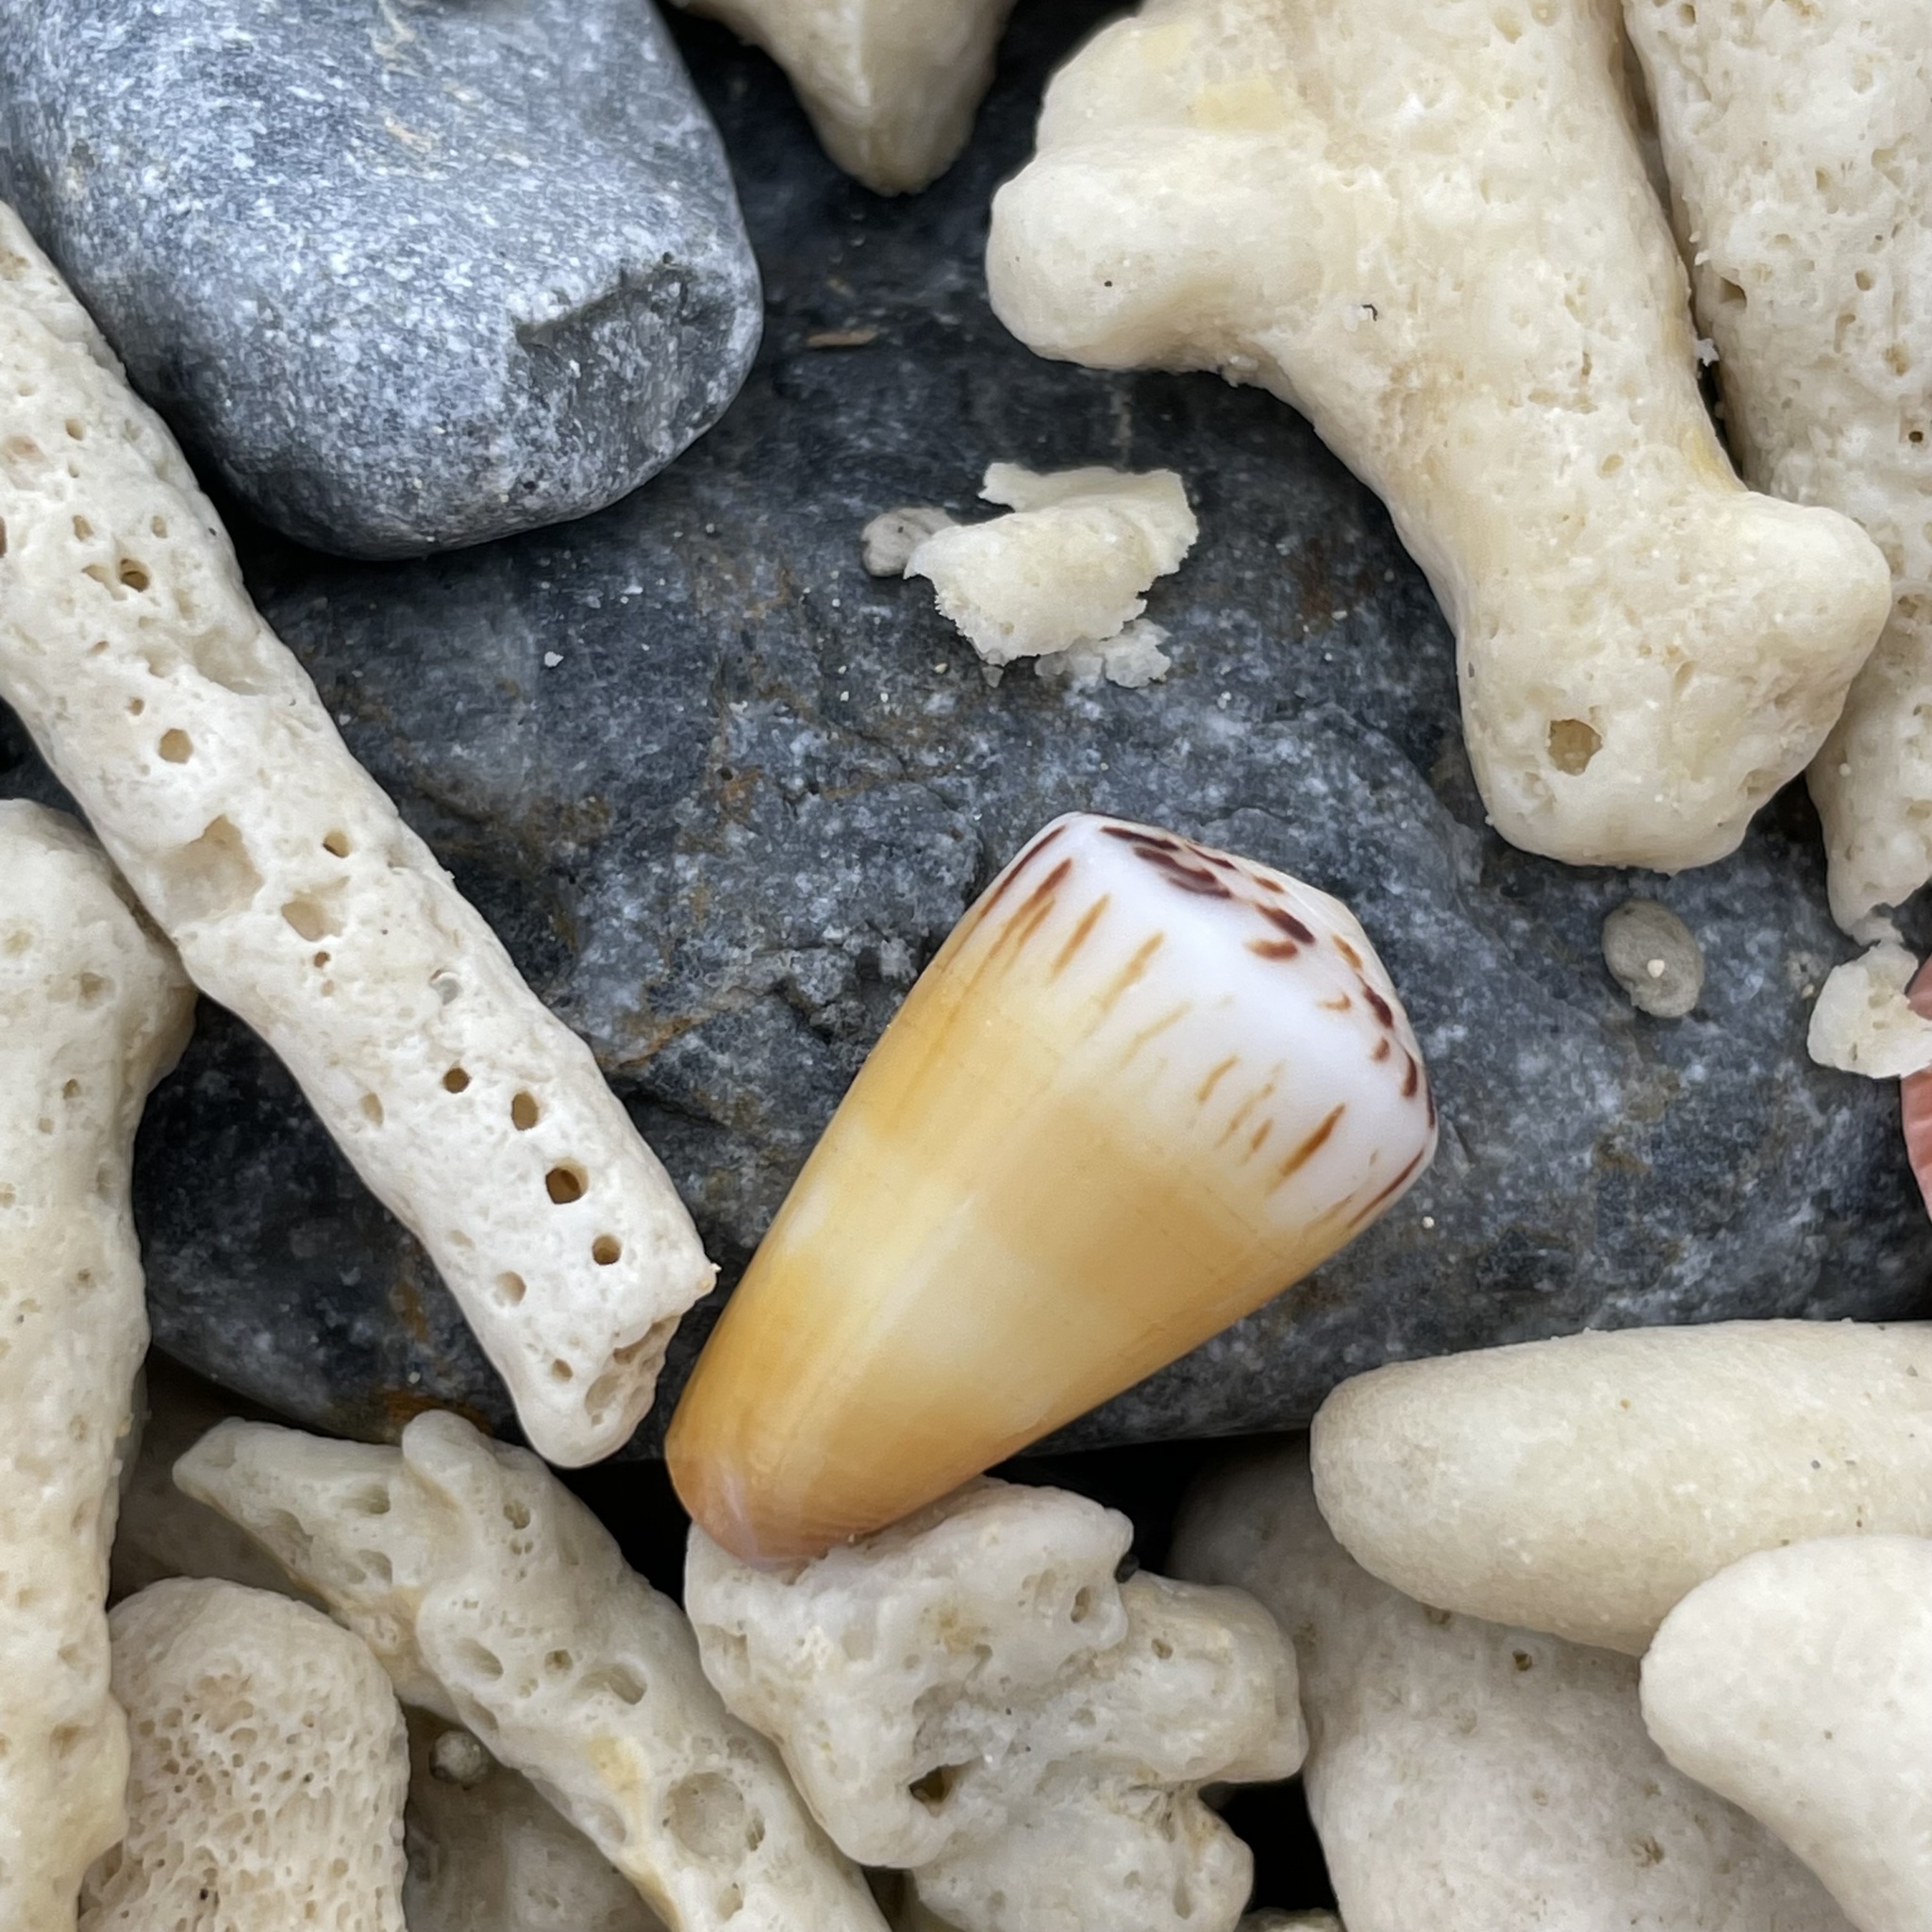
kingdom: Animalia
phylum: Mollusca
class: Gastropoda
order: Neogastropoda
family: Conidae
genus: Conus
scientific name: Conus planorbis
